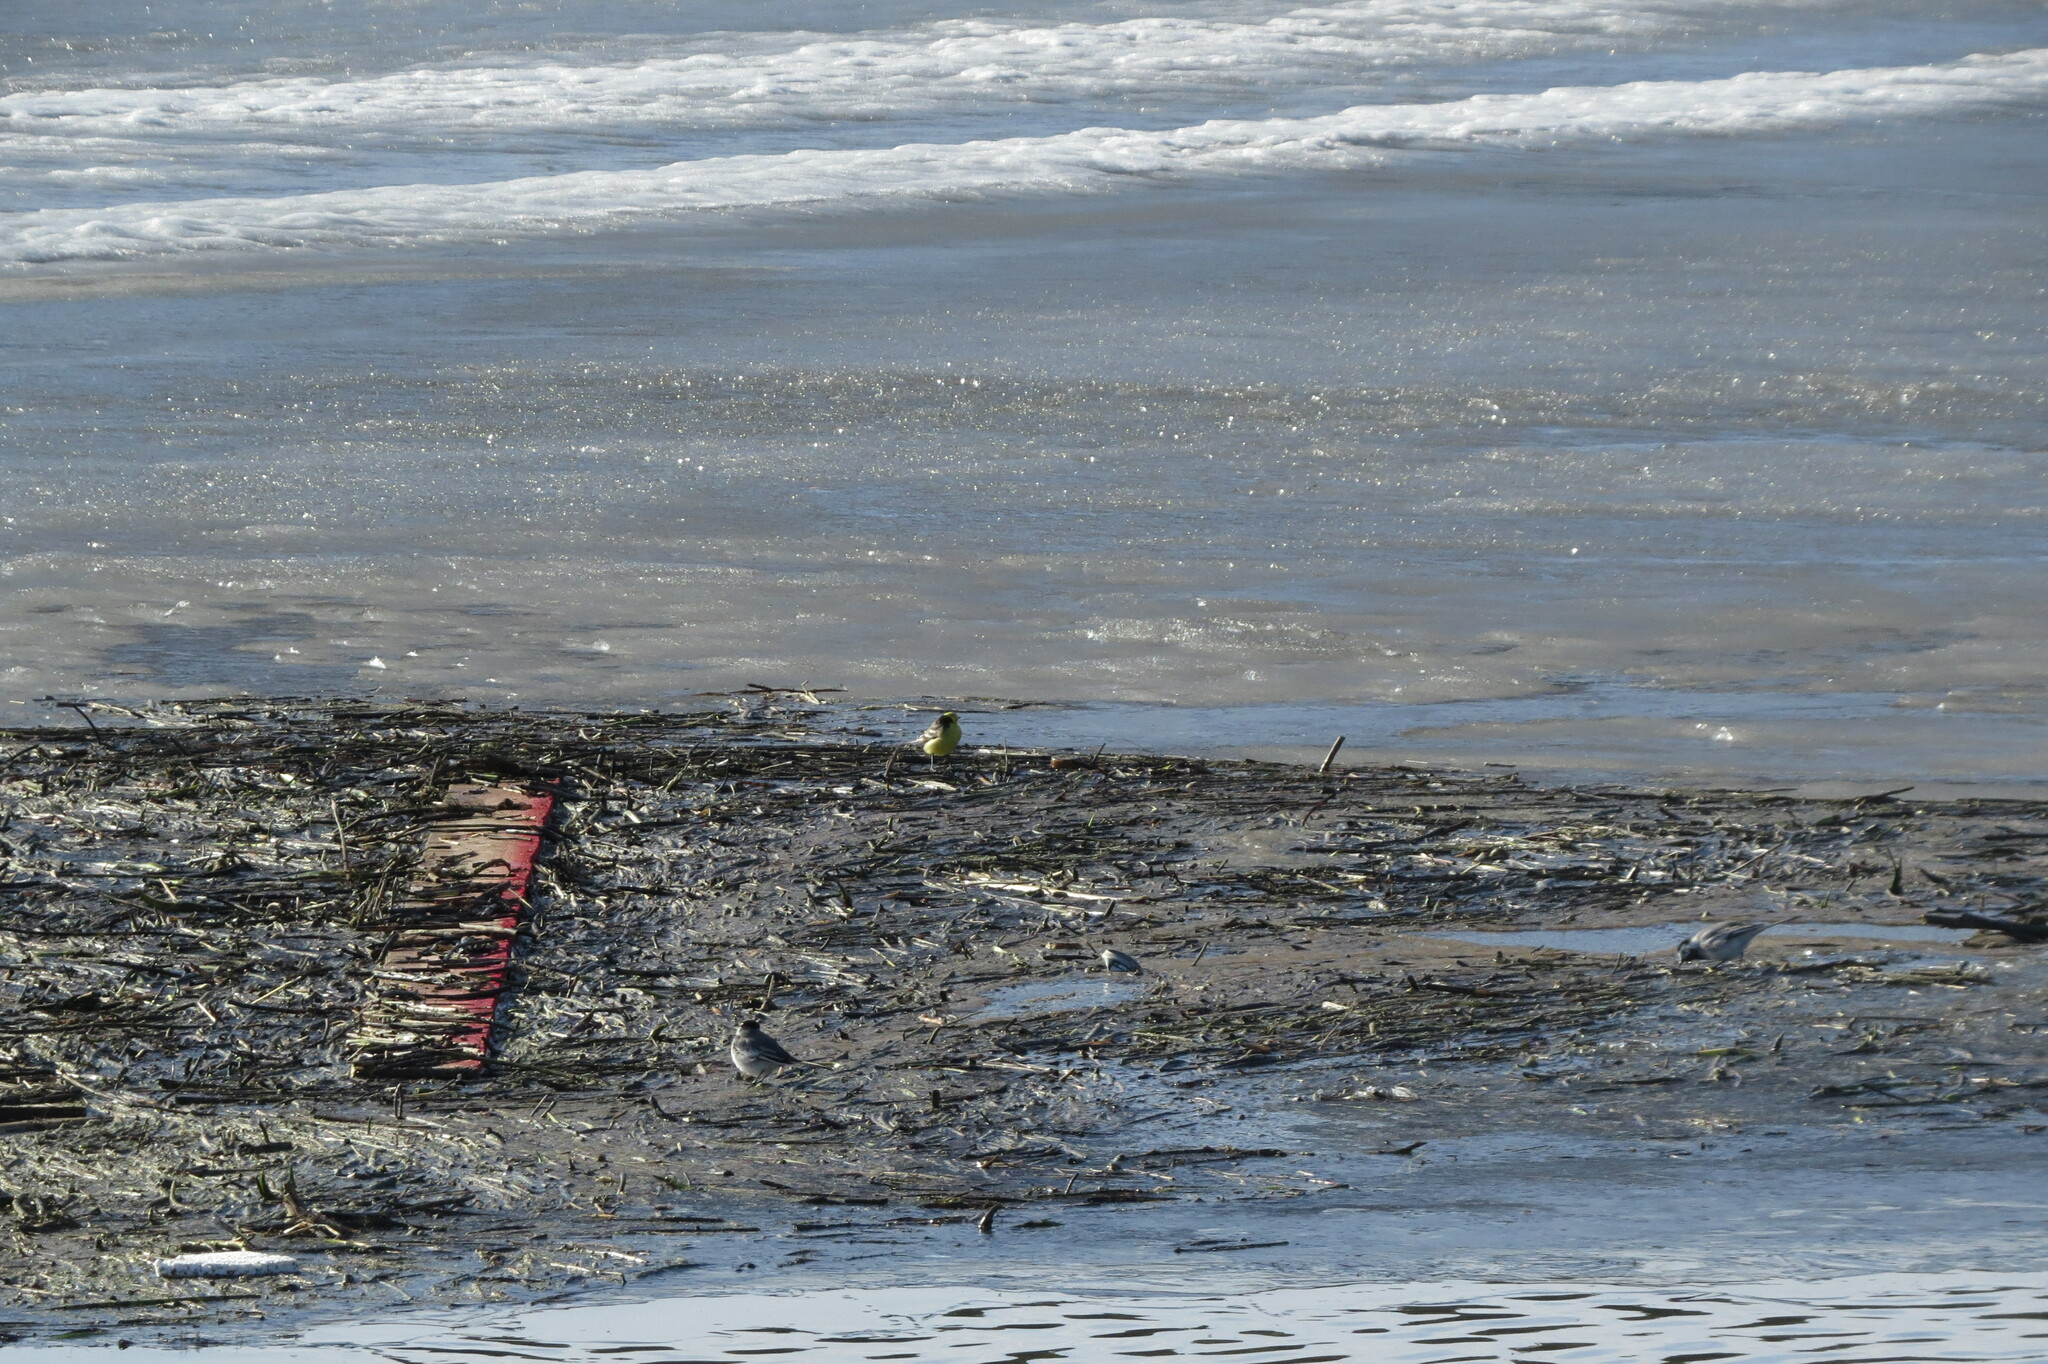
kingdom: Animalia
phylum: Chordata
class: Aves
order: Passeriformes
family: Motacillidae
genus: Motacilla
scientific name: Motacilla citreola
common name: Citrine wagtail
